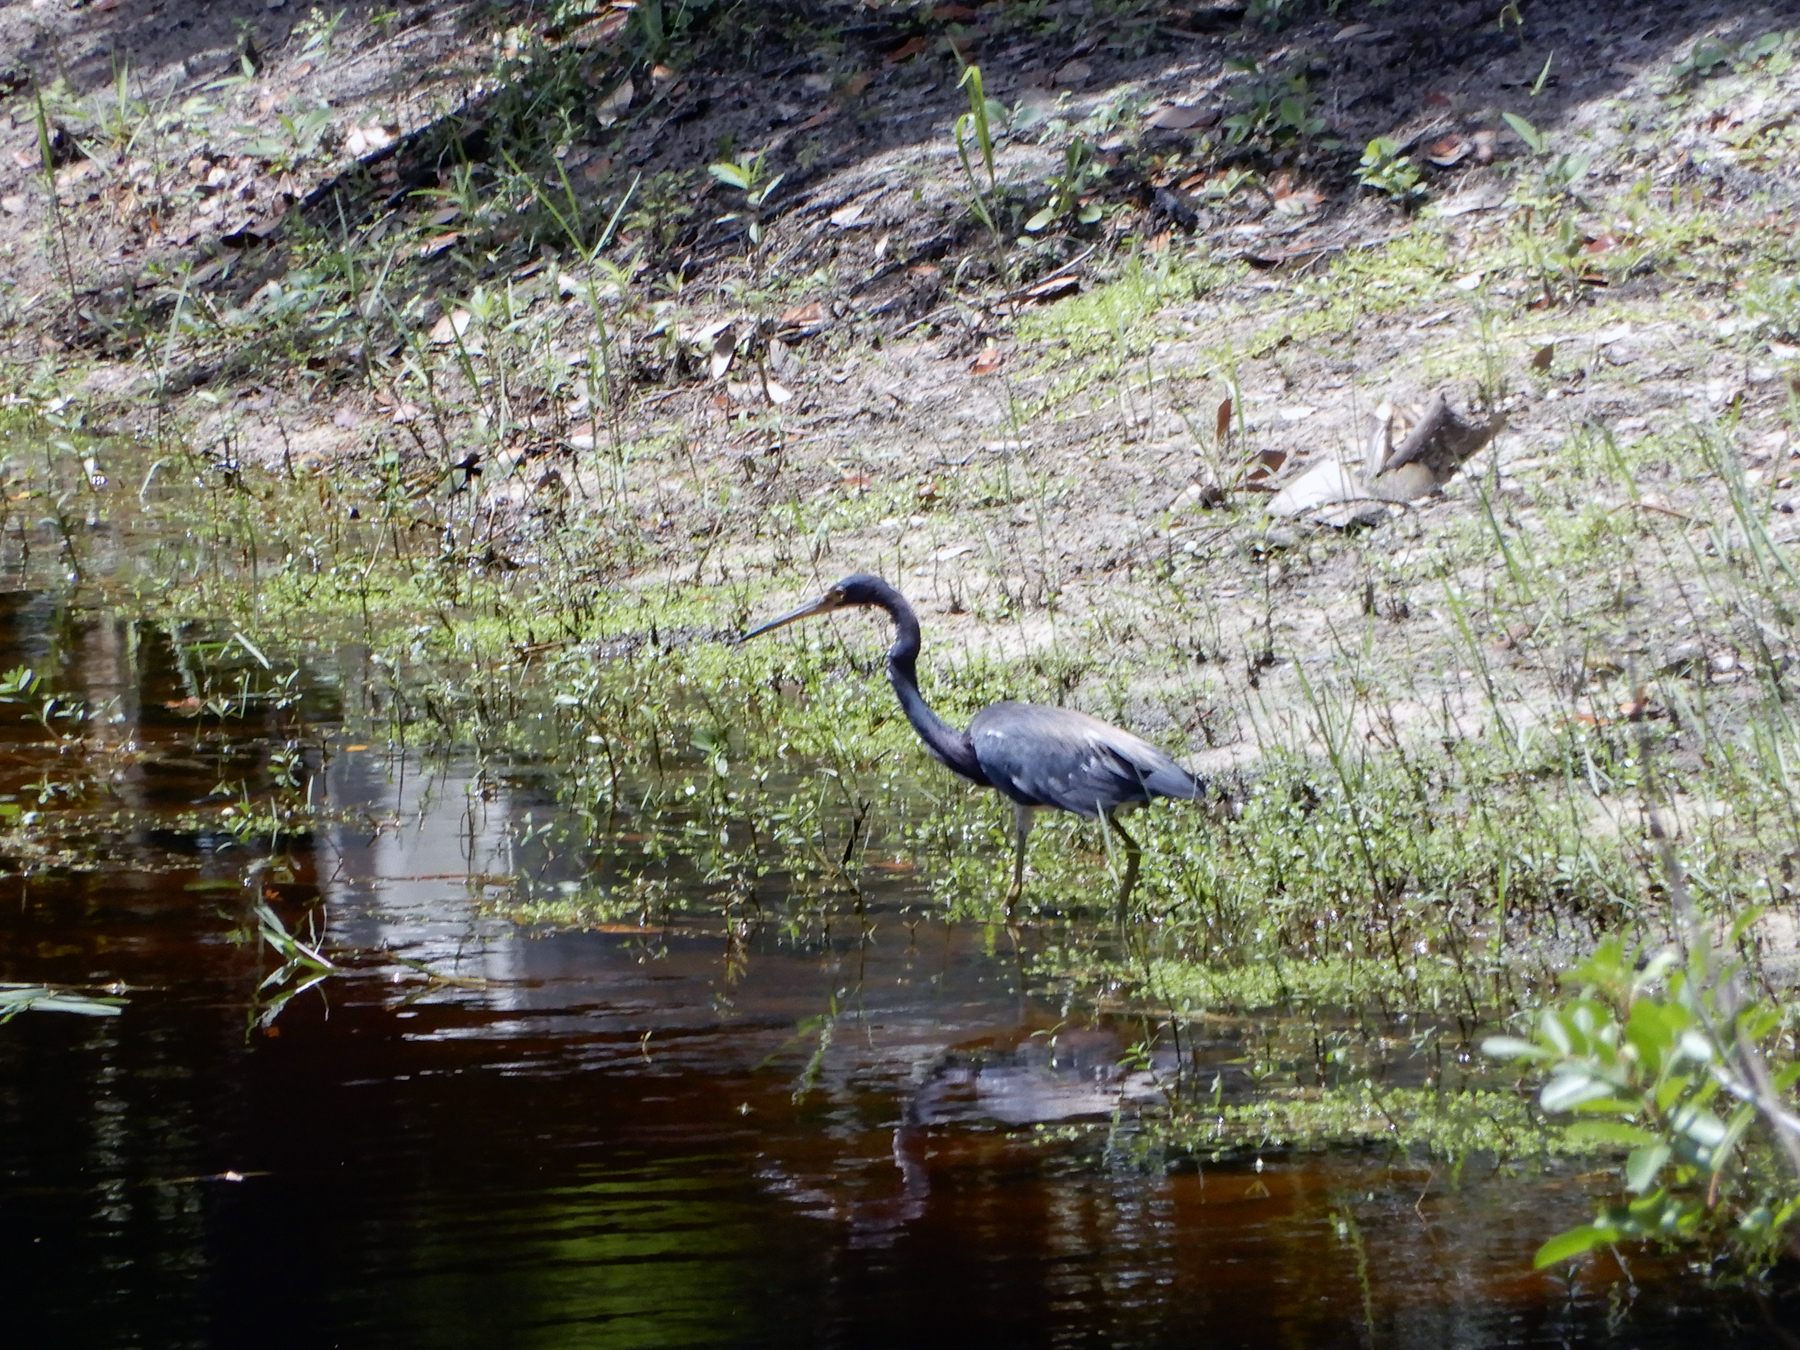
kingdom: Animalia
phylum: Chordata
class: Aves
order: Pelecaniformes
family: Ardeidae
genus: Egretta
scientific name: Egretta tricolor
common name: Tricolored heron
